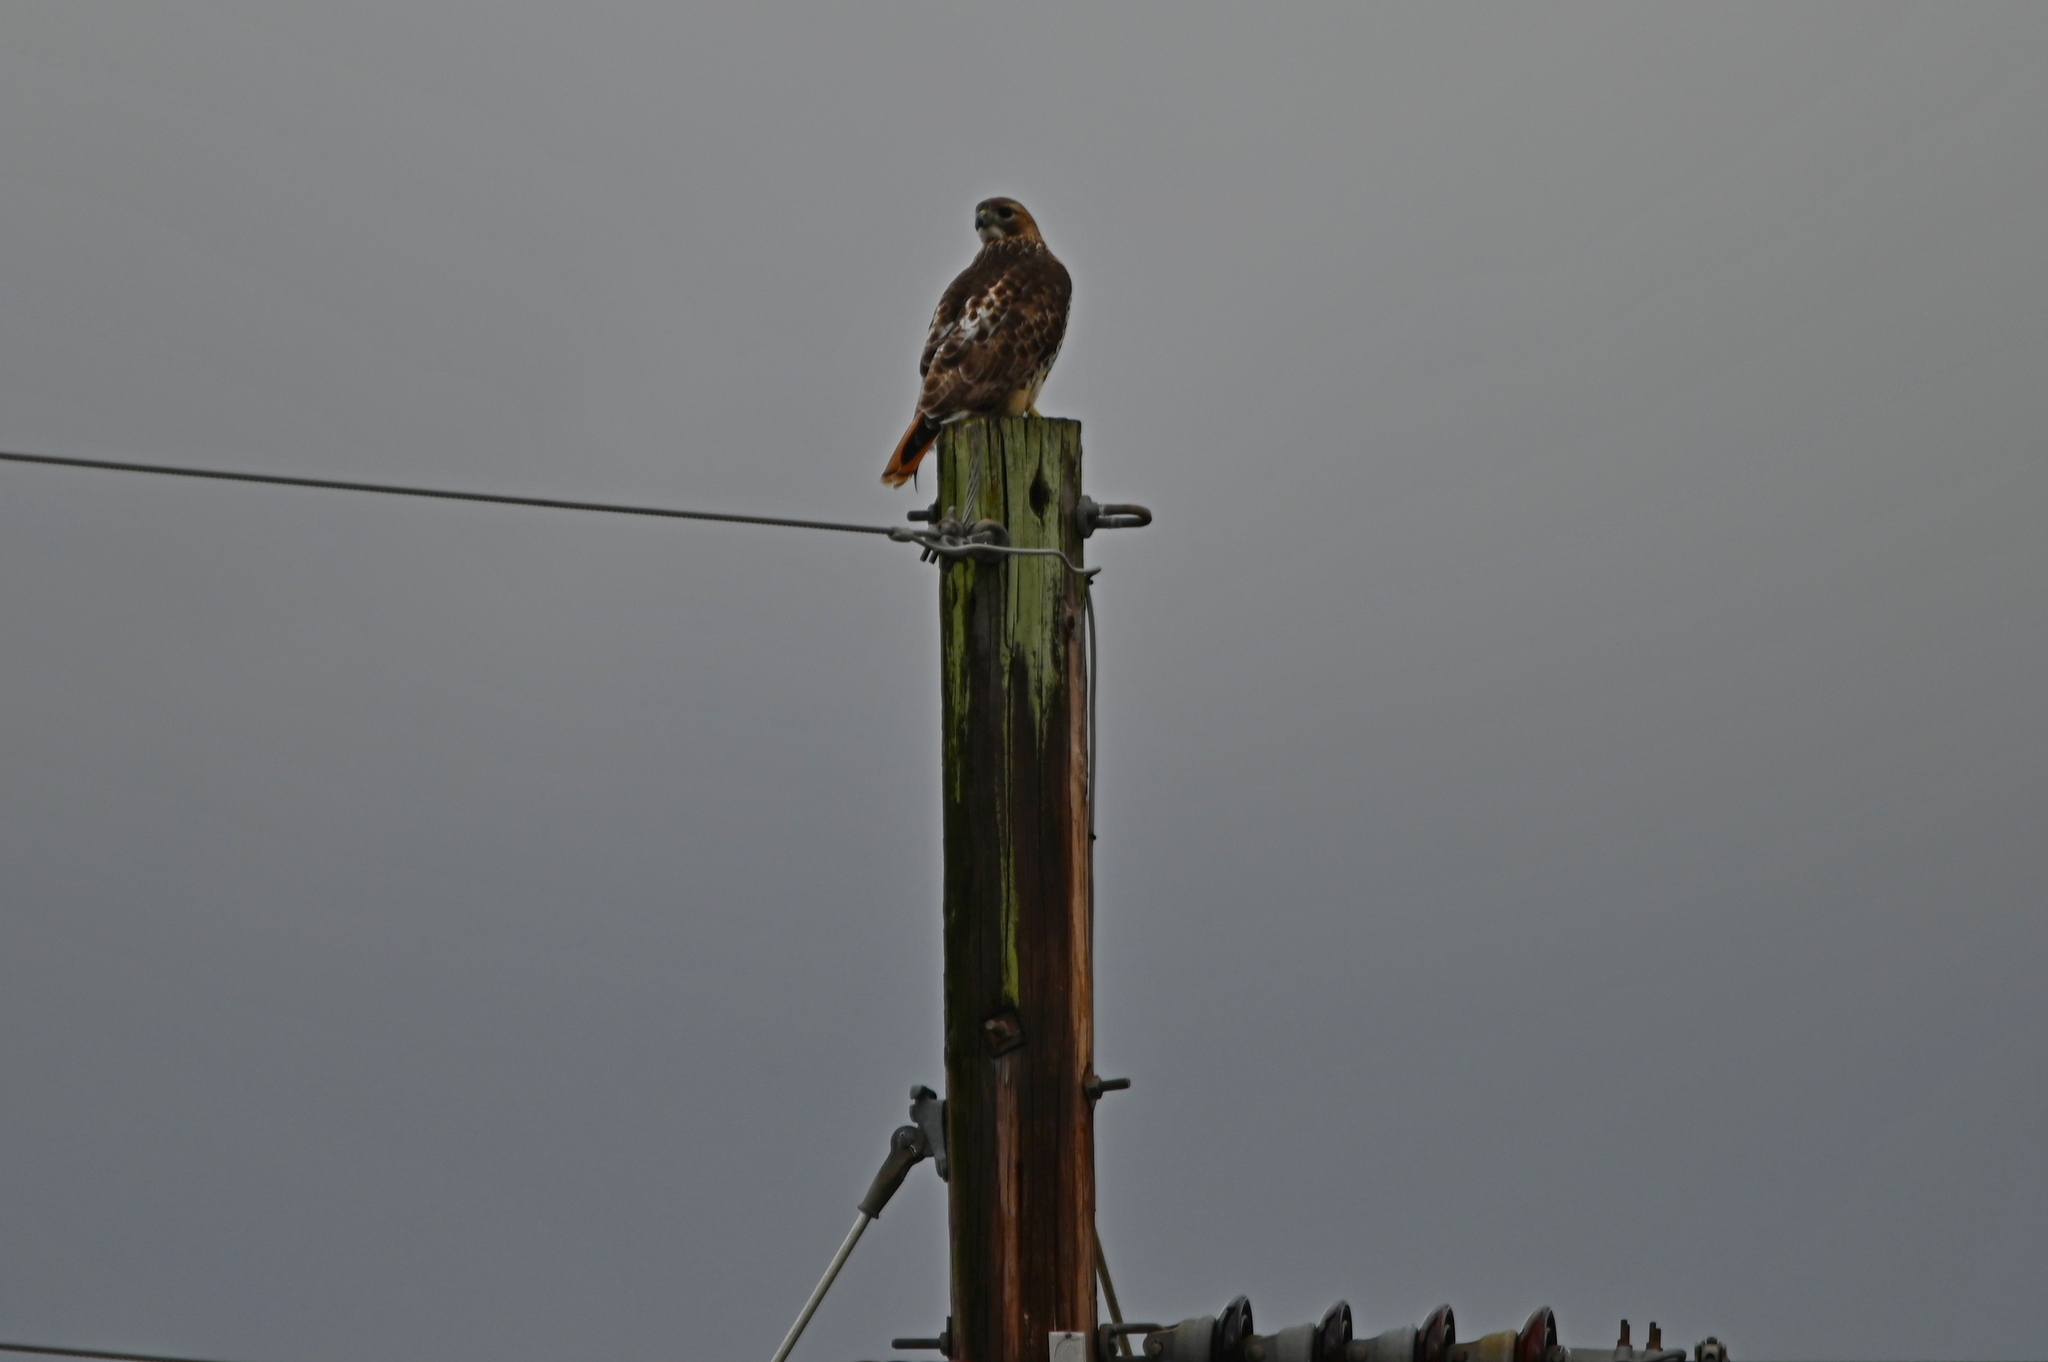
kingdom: Animalia
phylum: Chordata
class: Aves
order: Accipitriformes
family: Accipitridae
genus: Buteo
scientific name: Buteo jamaicensis
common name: Red-tailed hawk
